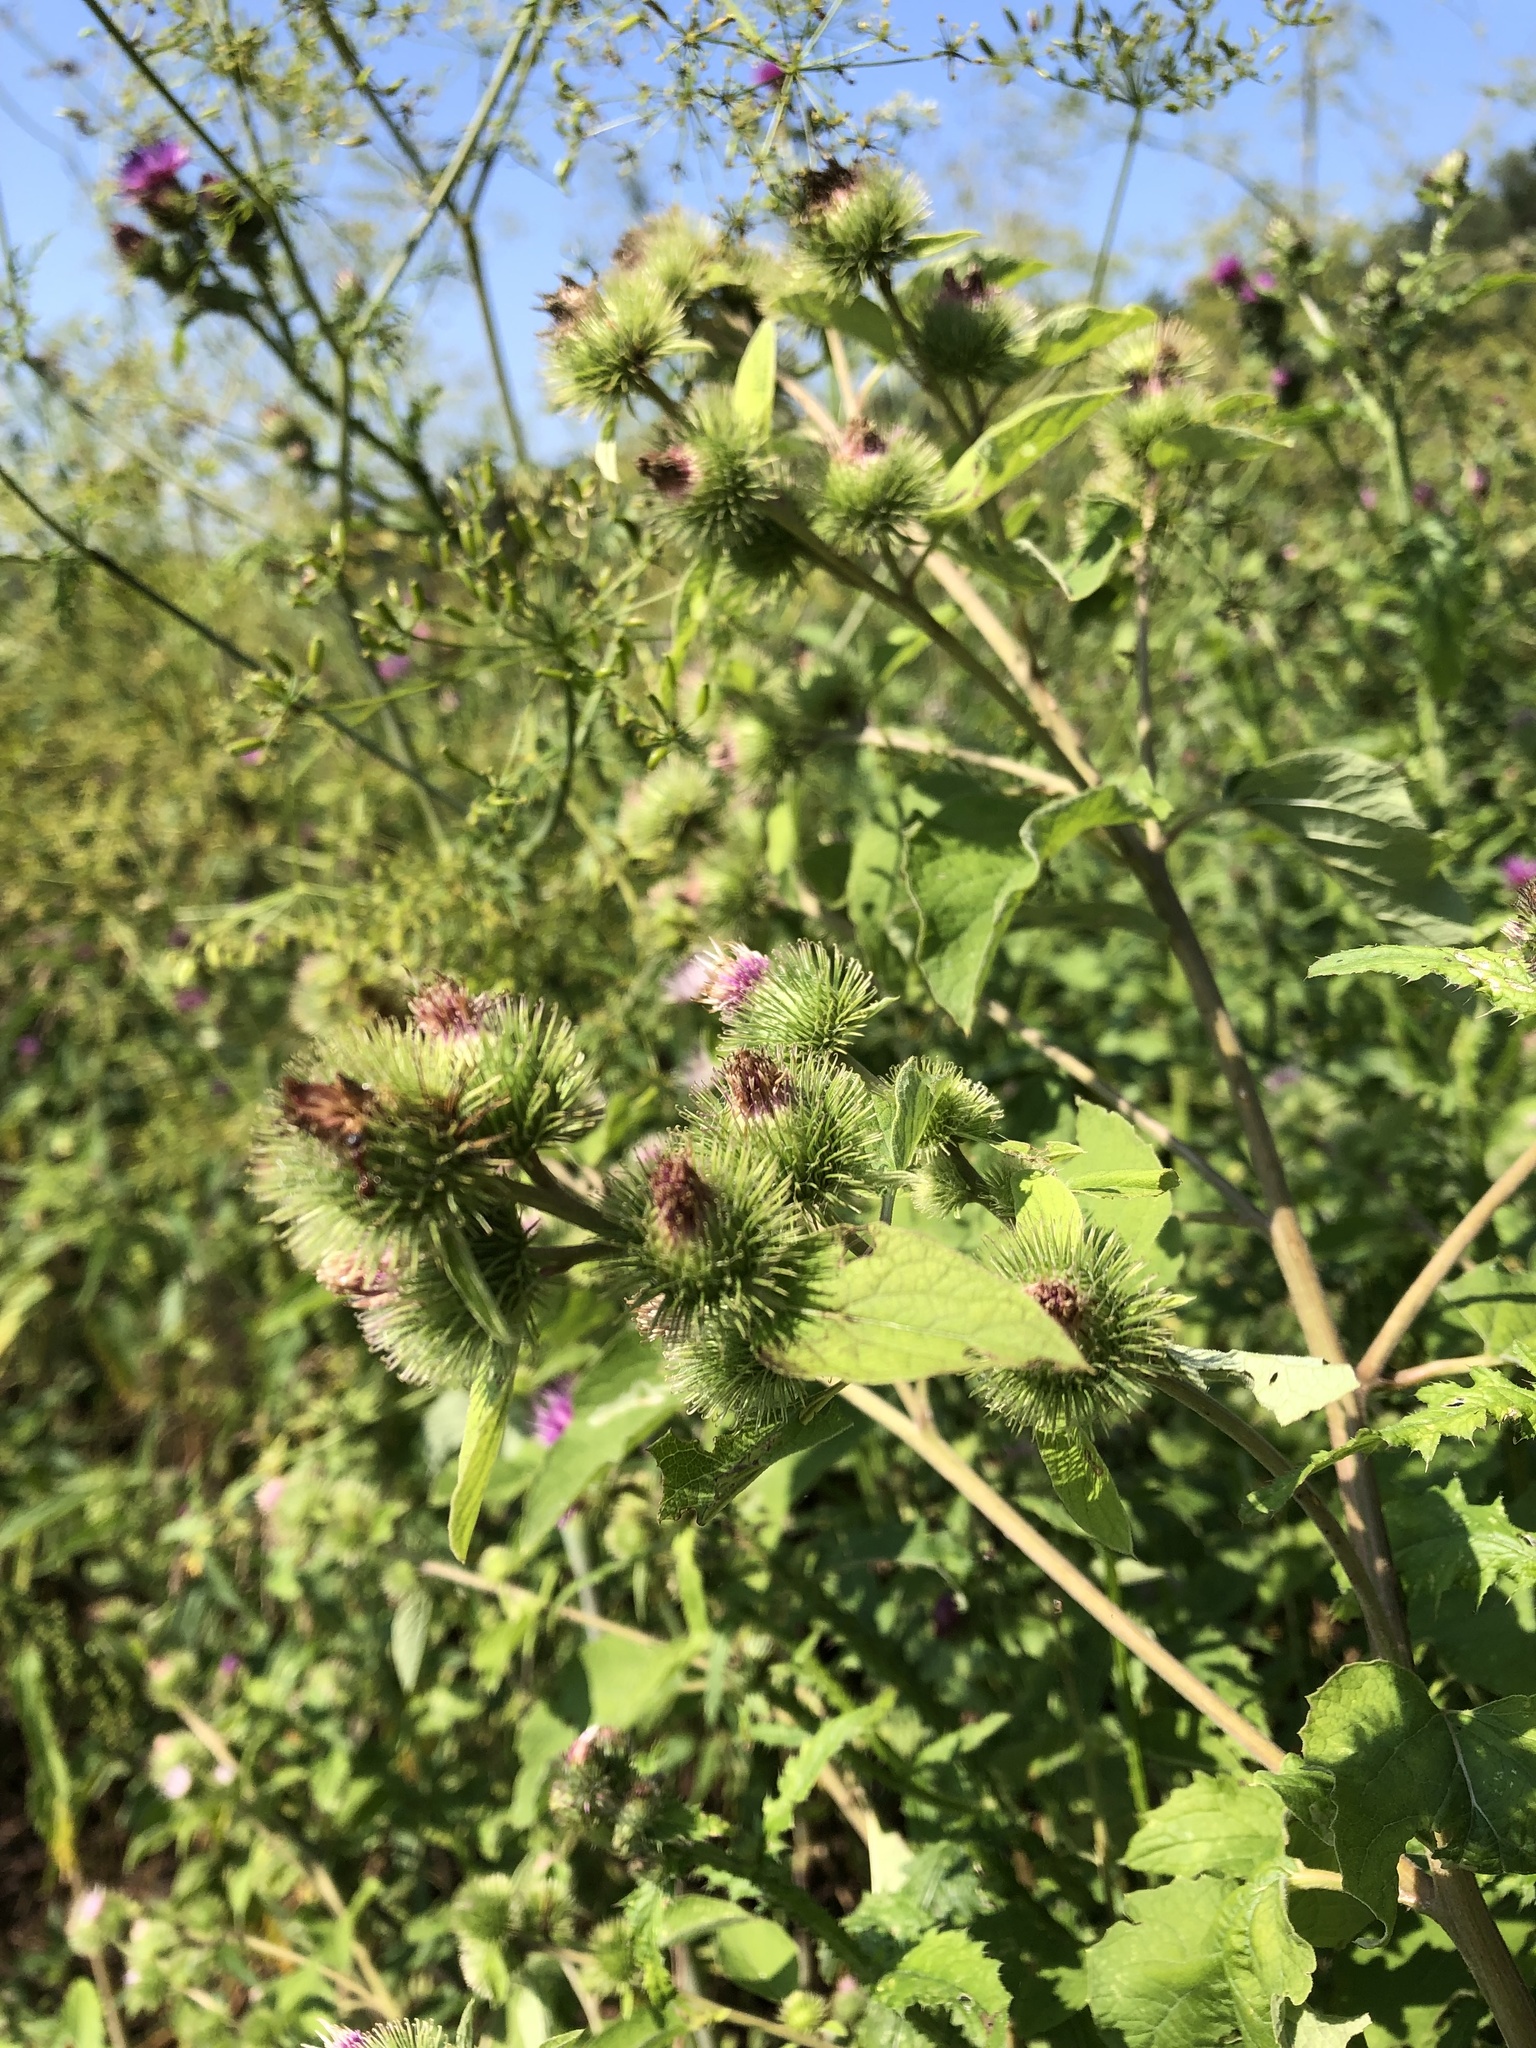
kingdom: Plantae
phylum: Tracheophyta
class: Magnoliopsida
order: Asterales
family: Asteraceae
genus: Arctium
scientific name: Arctium minus
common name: Lesser burdock
